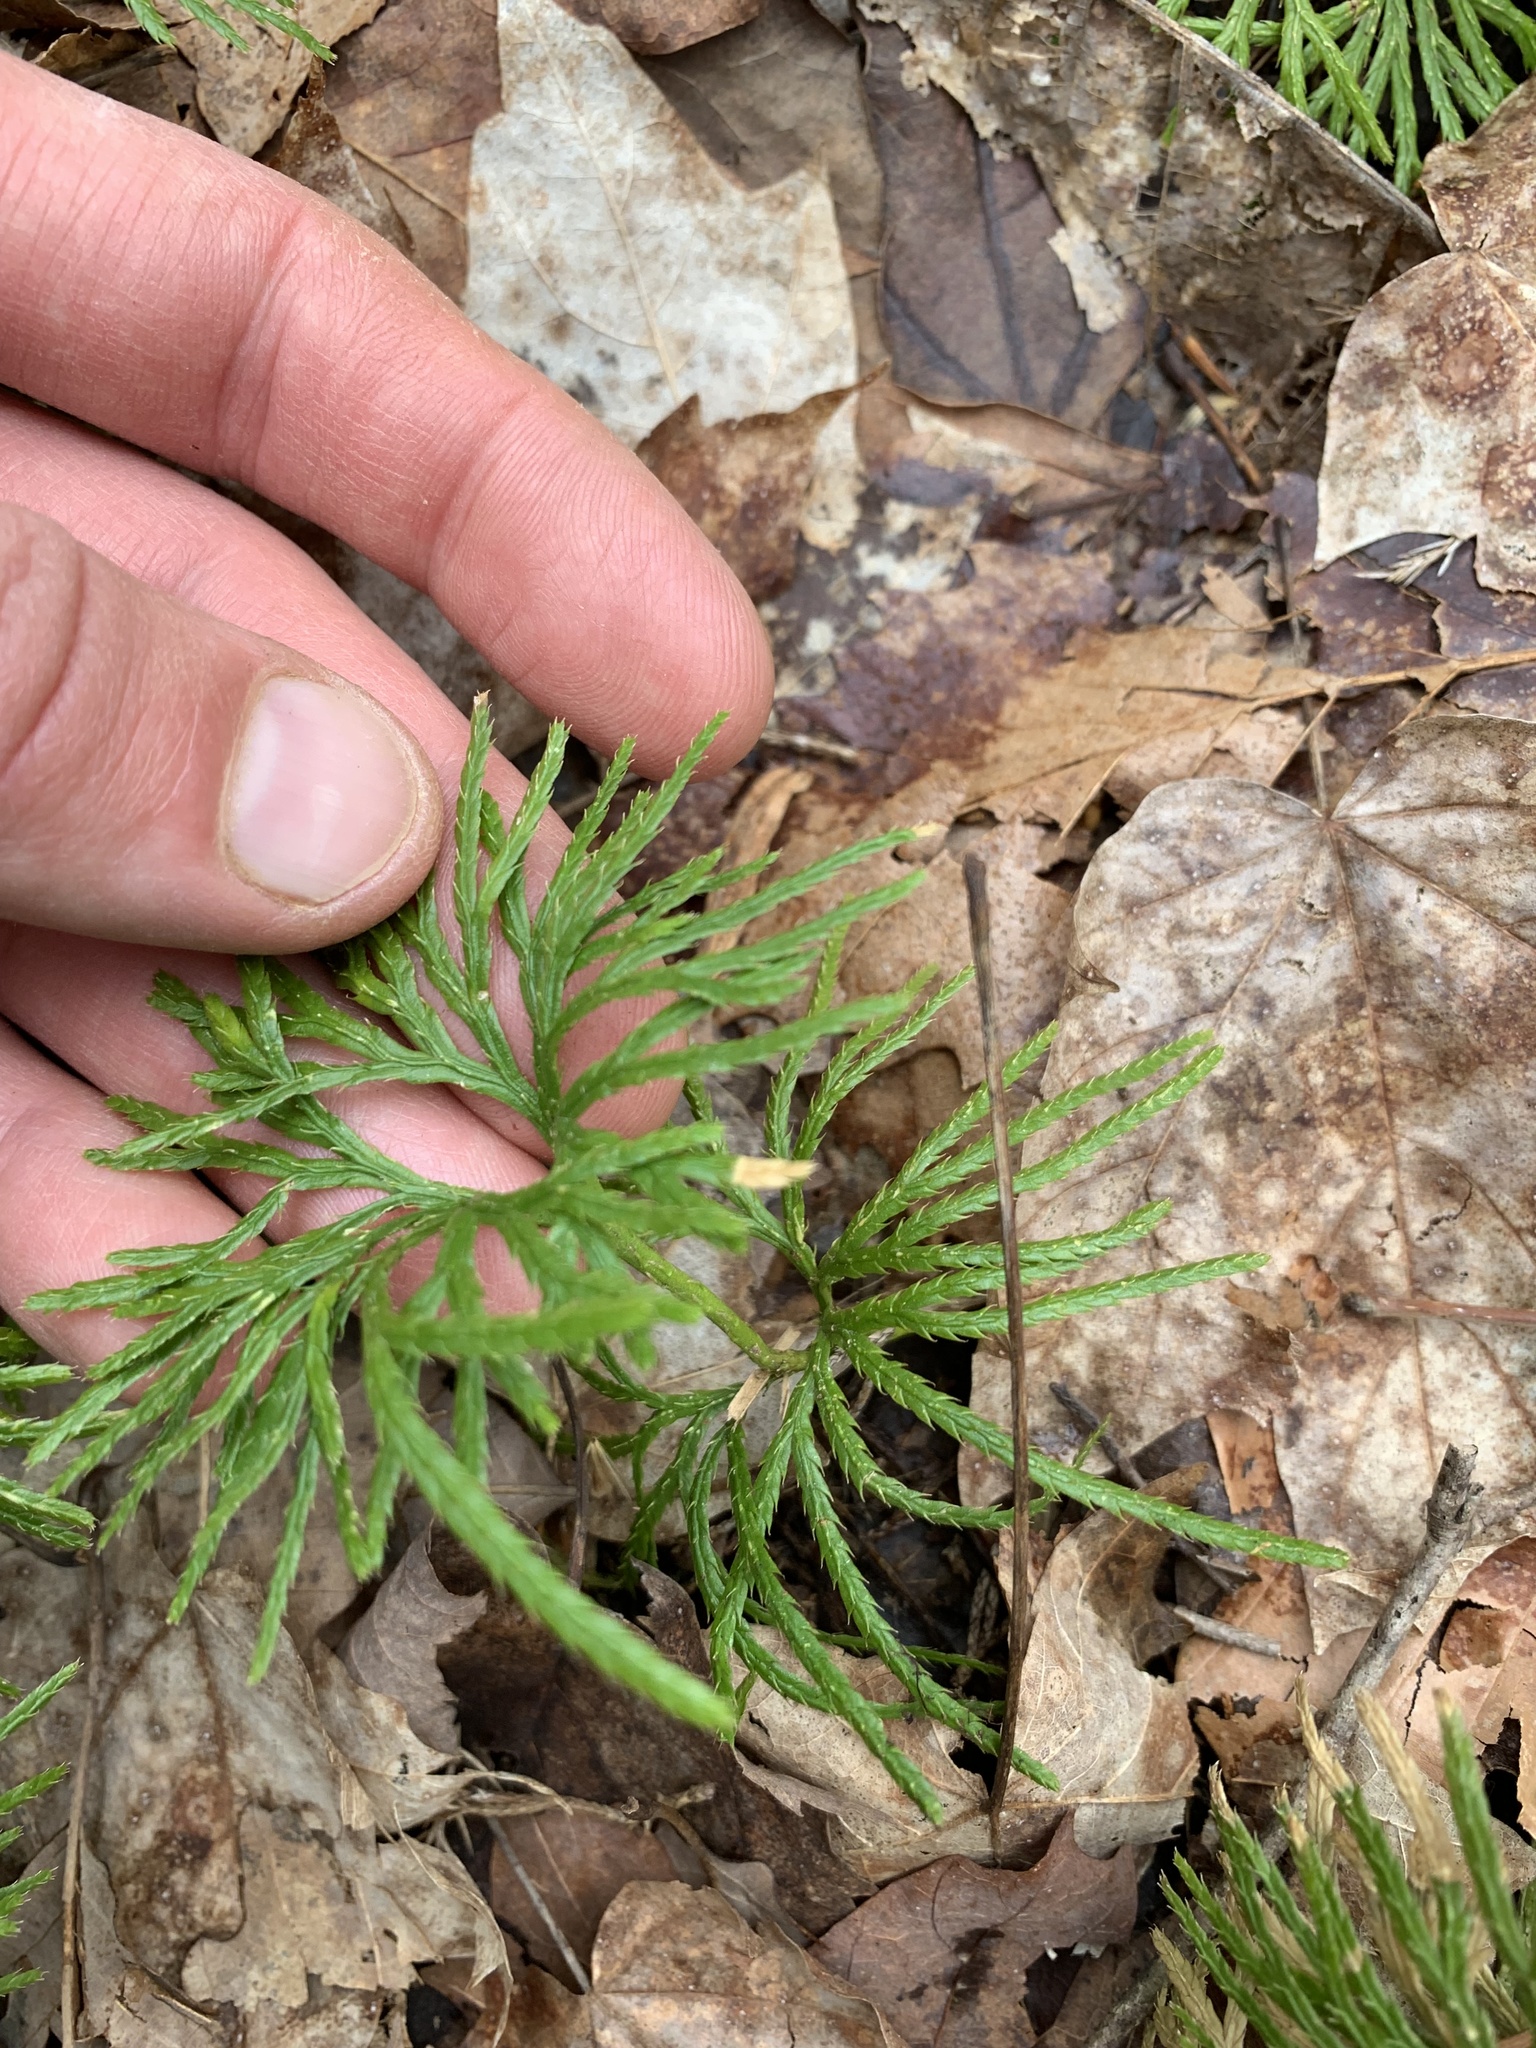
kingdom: Plantae
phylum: Tracheophyta
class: Lycopodiopsida
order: Lycopodiales
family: Lycopodiaceae
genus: Diphasiastrum
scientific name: Diphasiastrum digitatum
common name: Southern running-pine
